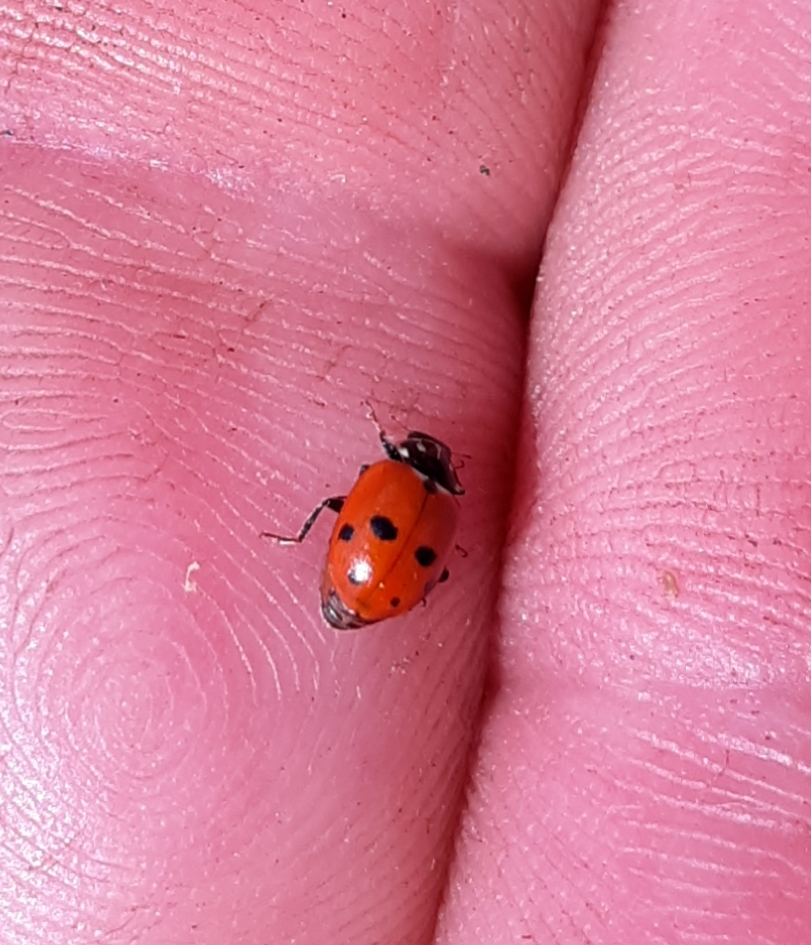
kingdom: Animalia
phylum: Arthropoda
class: Insecta
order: Coleoptera
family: Coccinellidae
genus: Hippodamia
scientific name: Hippodamia variegata
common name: Ladybird beetle
